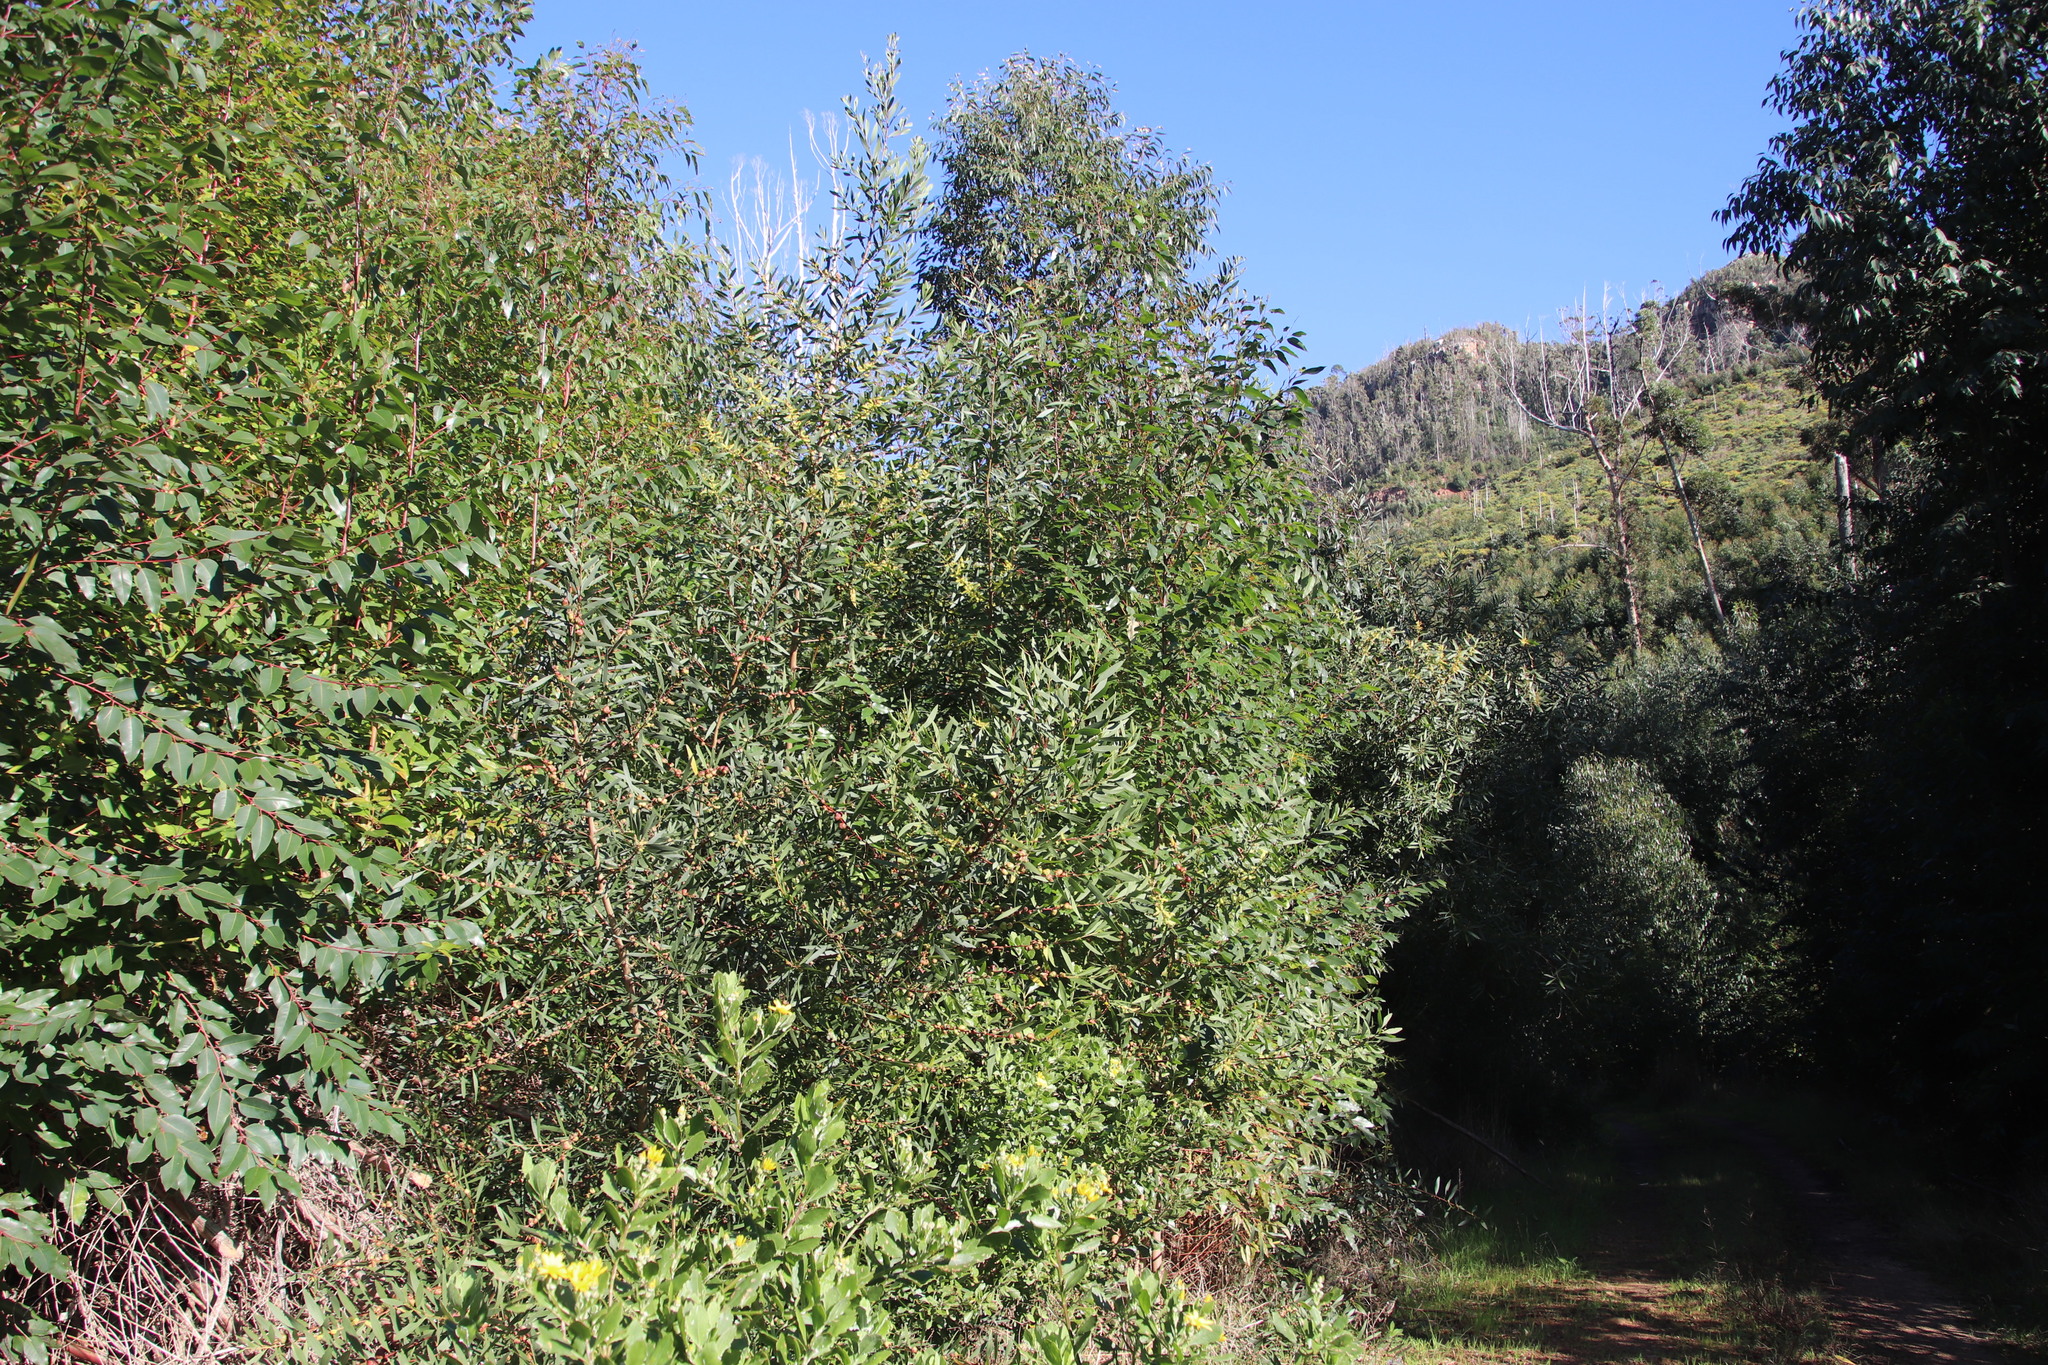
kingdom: Plantae
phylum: Tracheophyta
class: Magnoliopsida
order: Fabales
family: Fabaceae
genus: Acacia
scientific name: Acacia longifolia
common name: Sydney golden wattle
